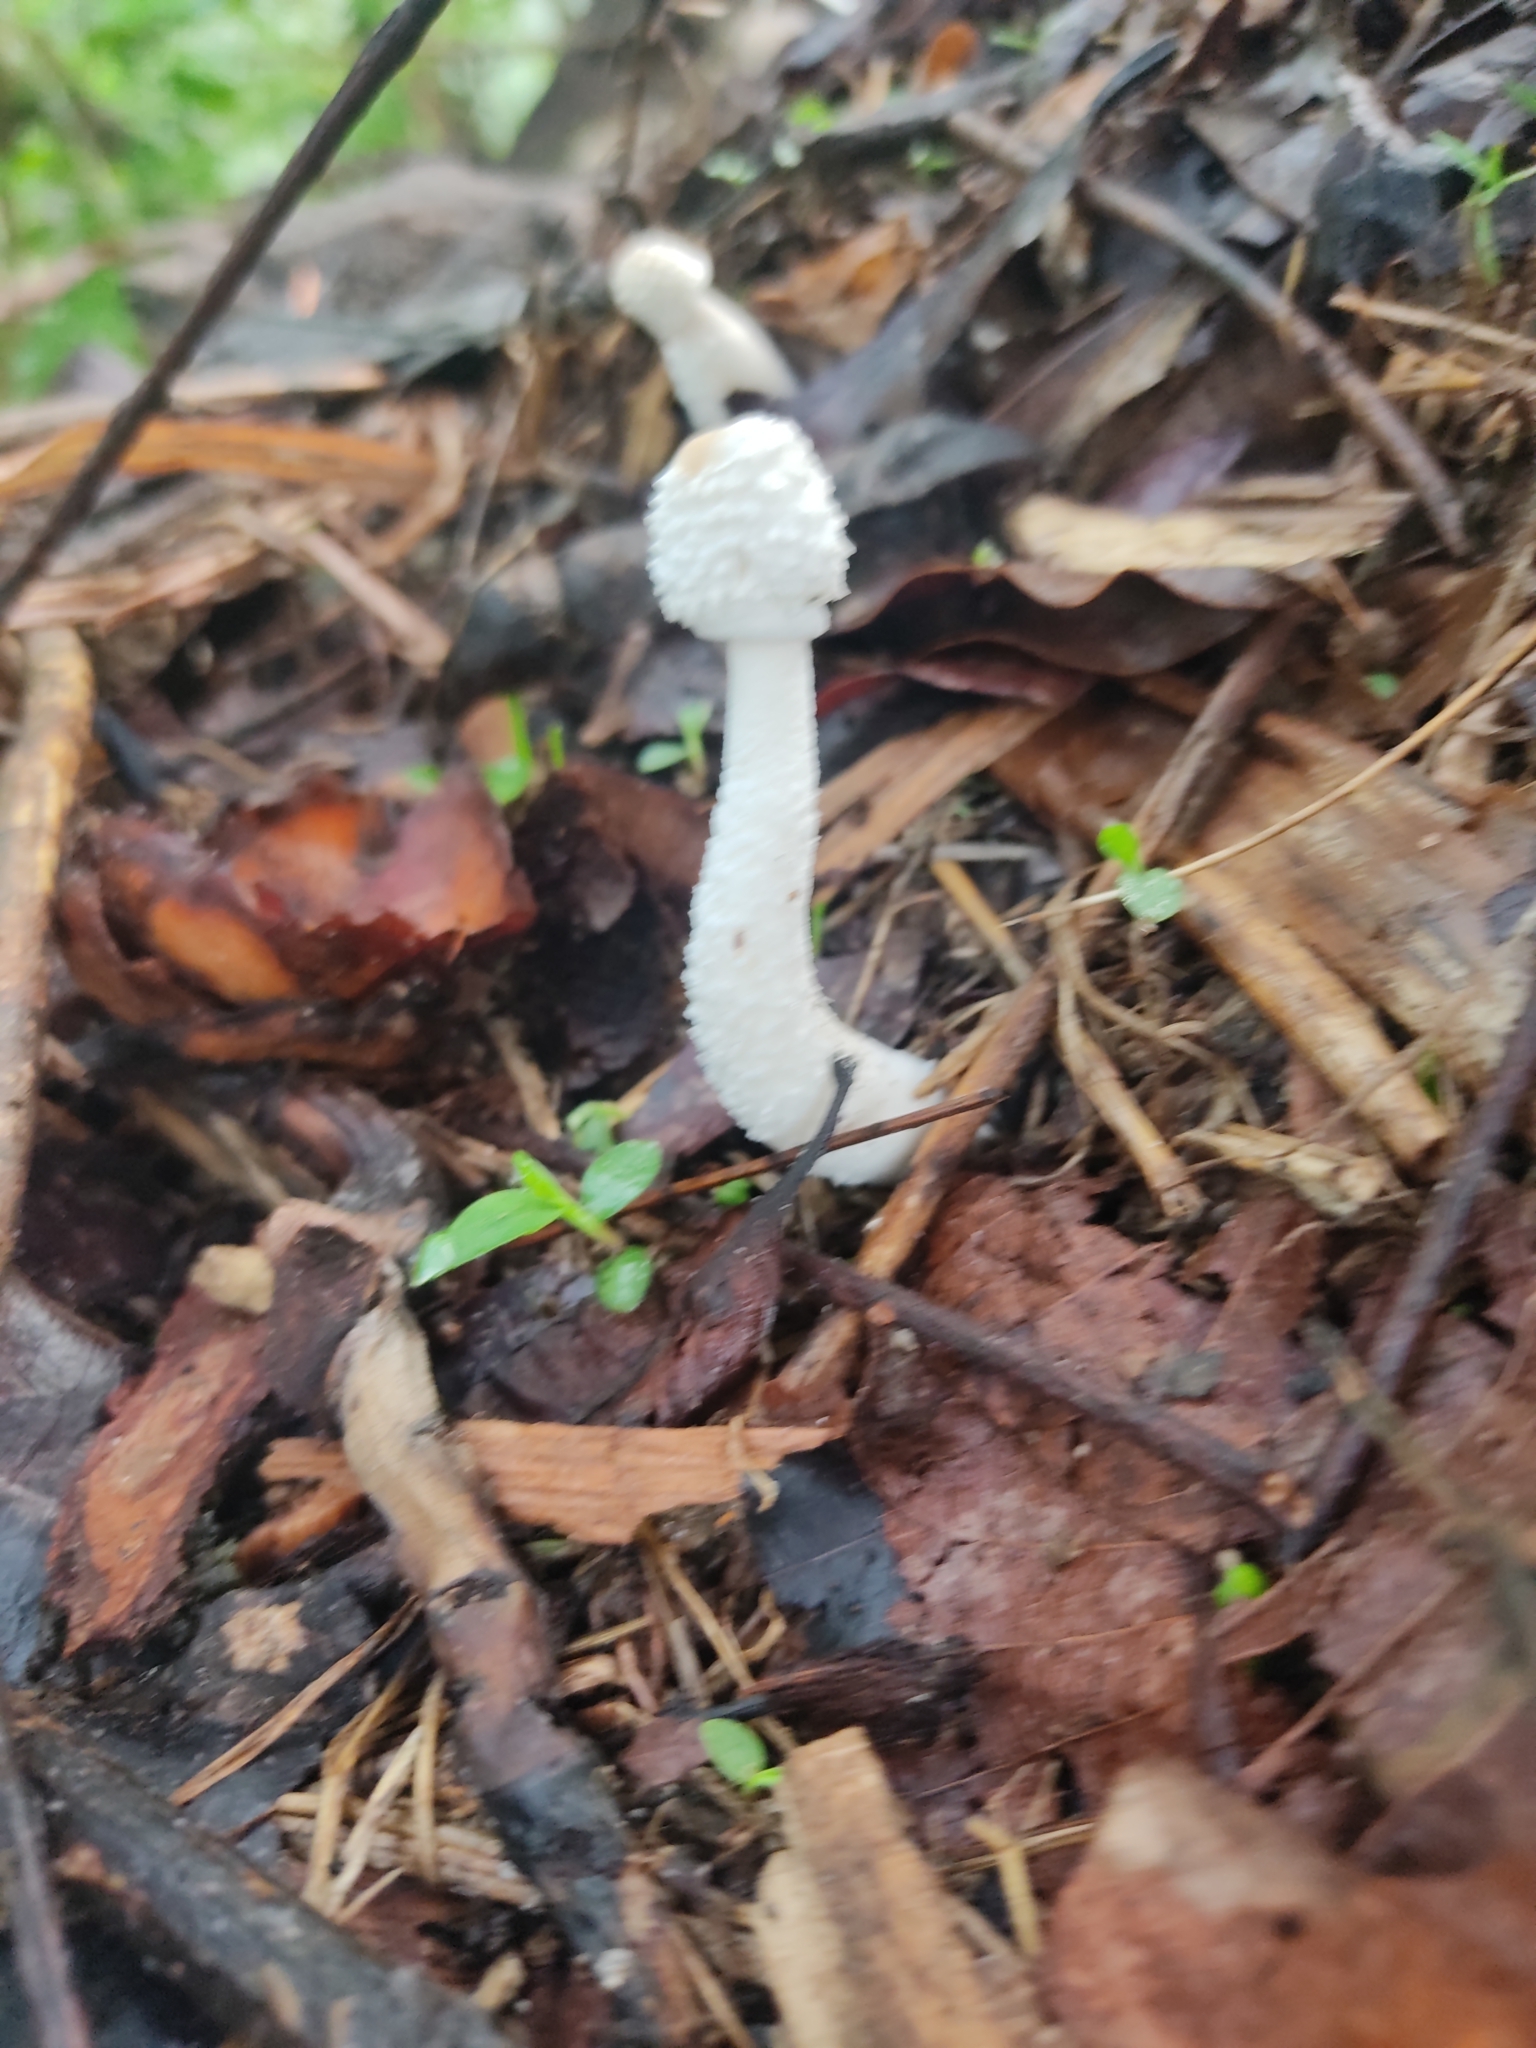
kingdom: Fungi
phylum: Basidiomycota
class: Agaricomycetes
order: Agaricales
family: Agaricaceae
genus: Leucocoprinus
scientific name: Leucocoprinus cretaceus
